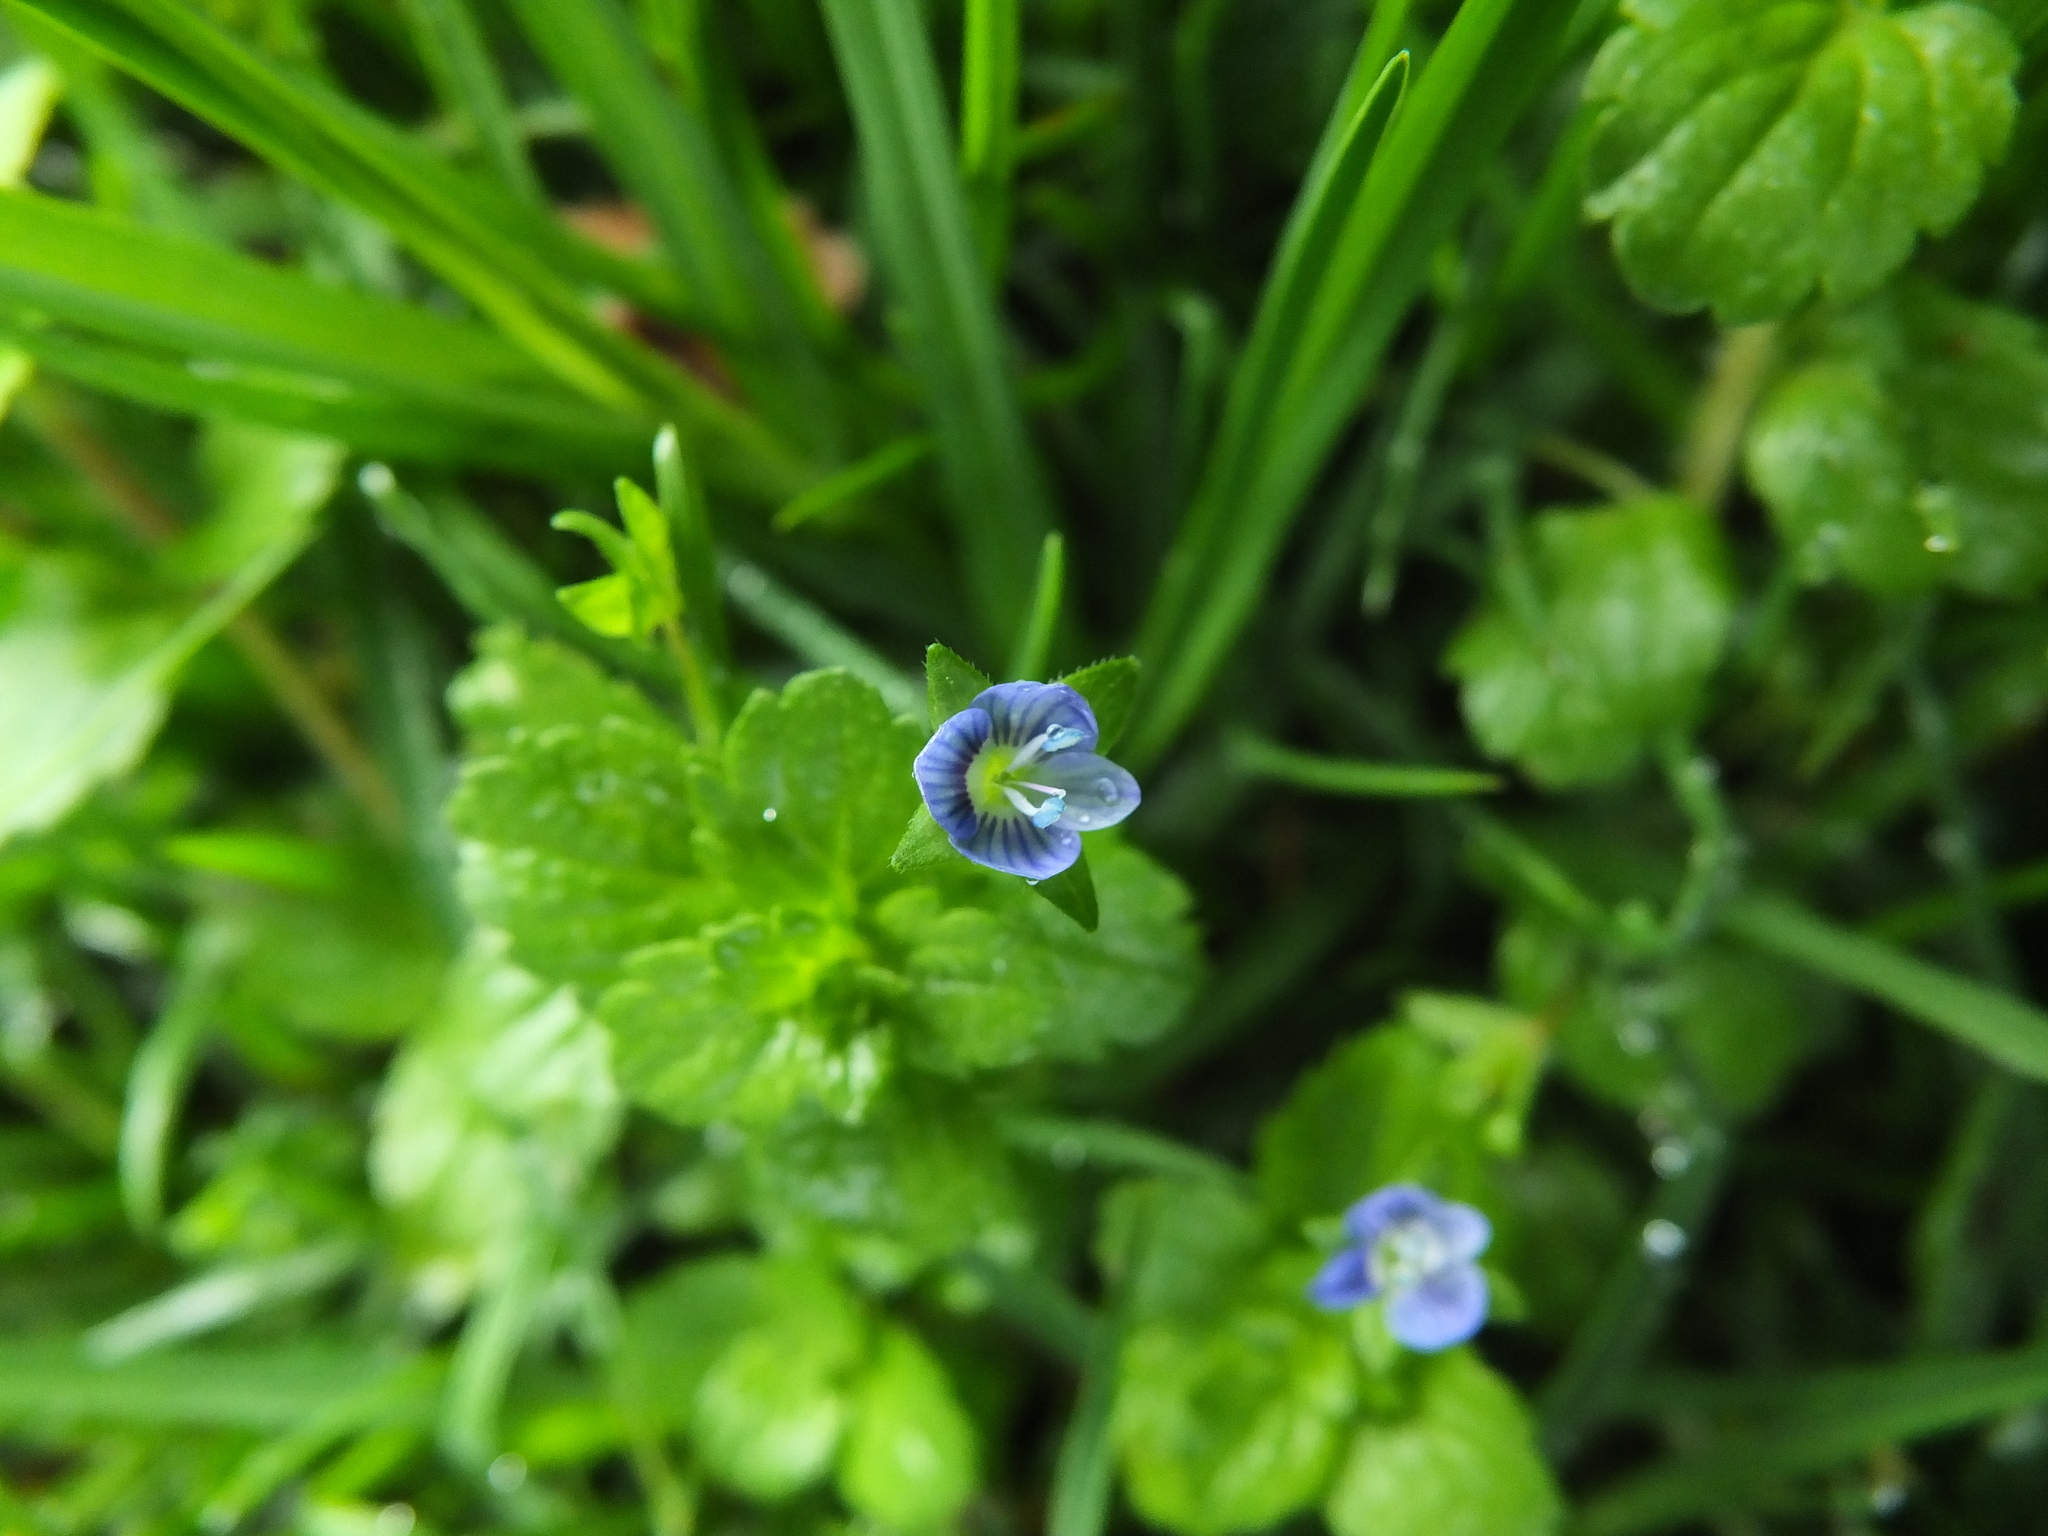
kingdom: Plantae
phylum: Tracheophyta
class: Magnoliopsida
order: Lamiales
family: Plantaginaceae
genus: Veronica
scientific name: Veronica persica
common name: Common field-speedwell
